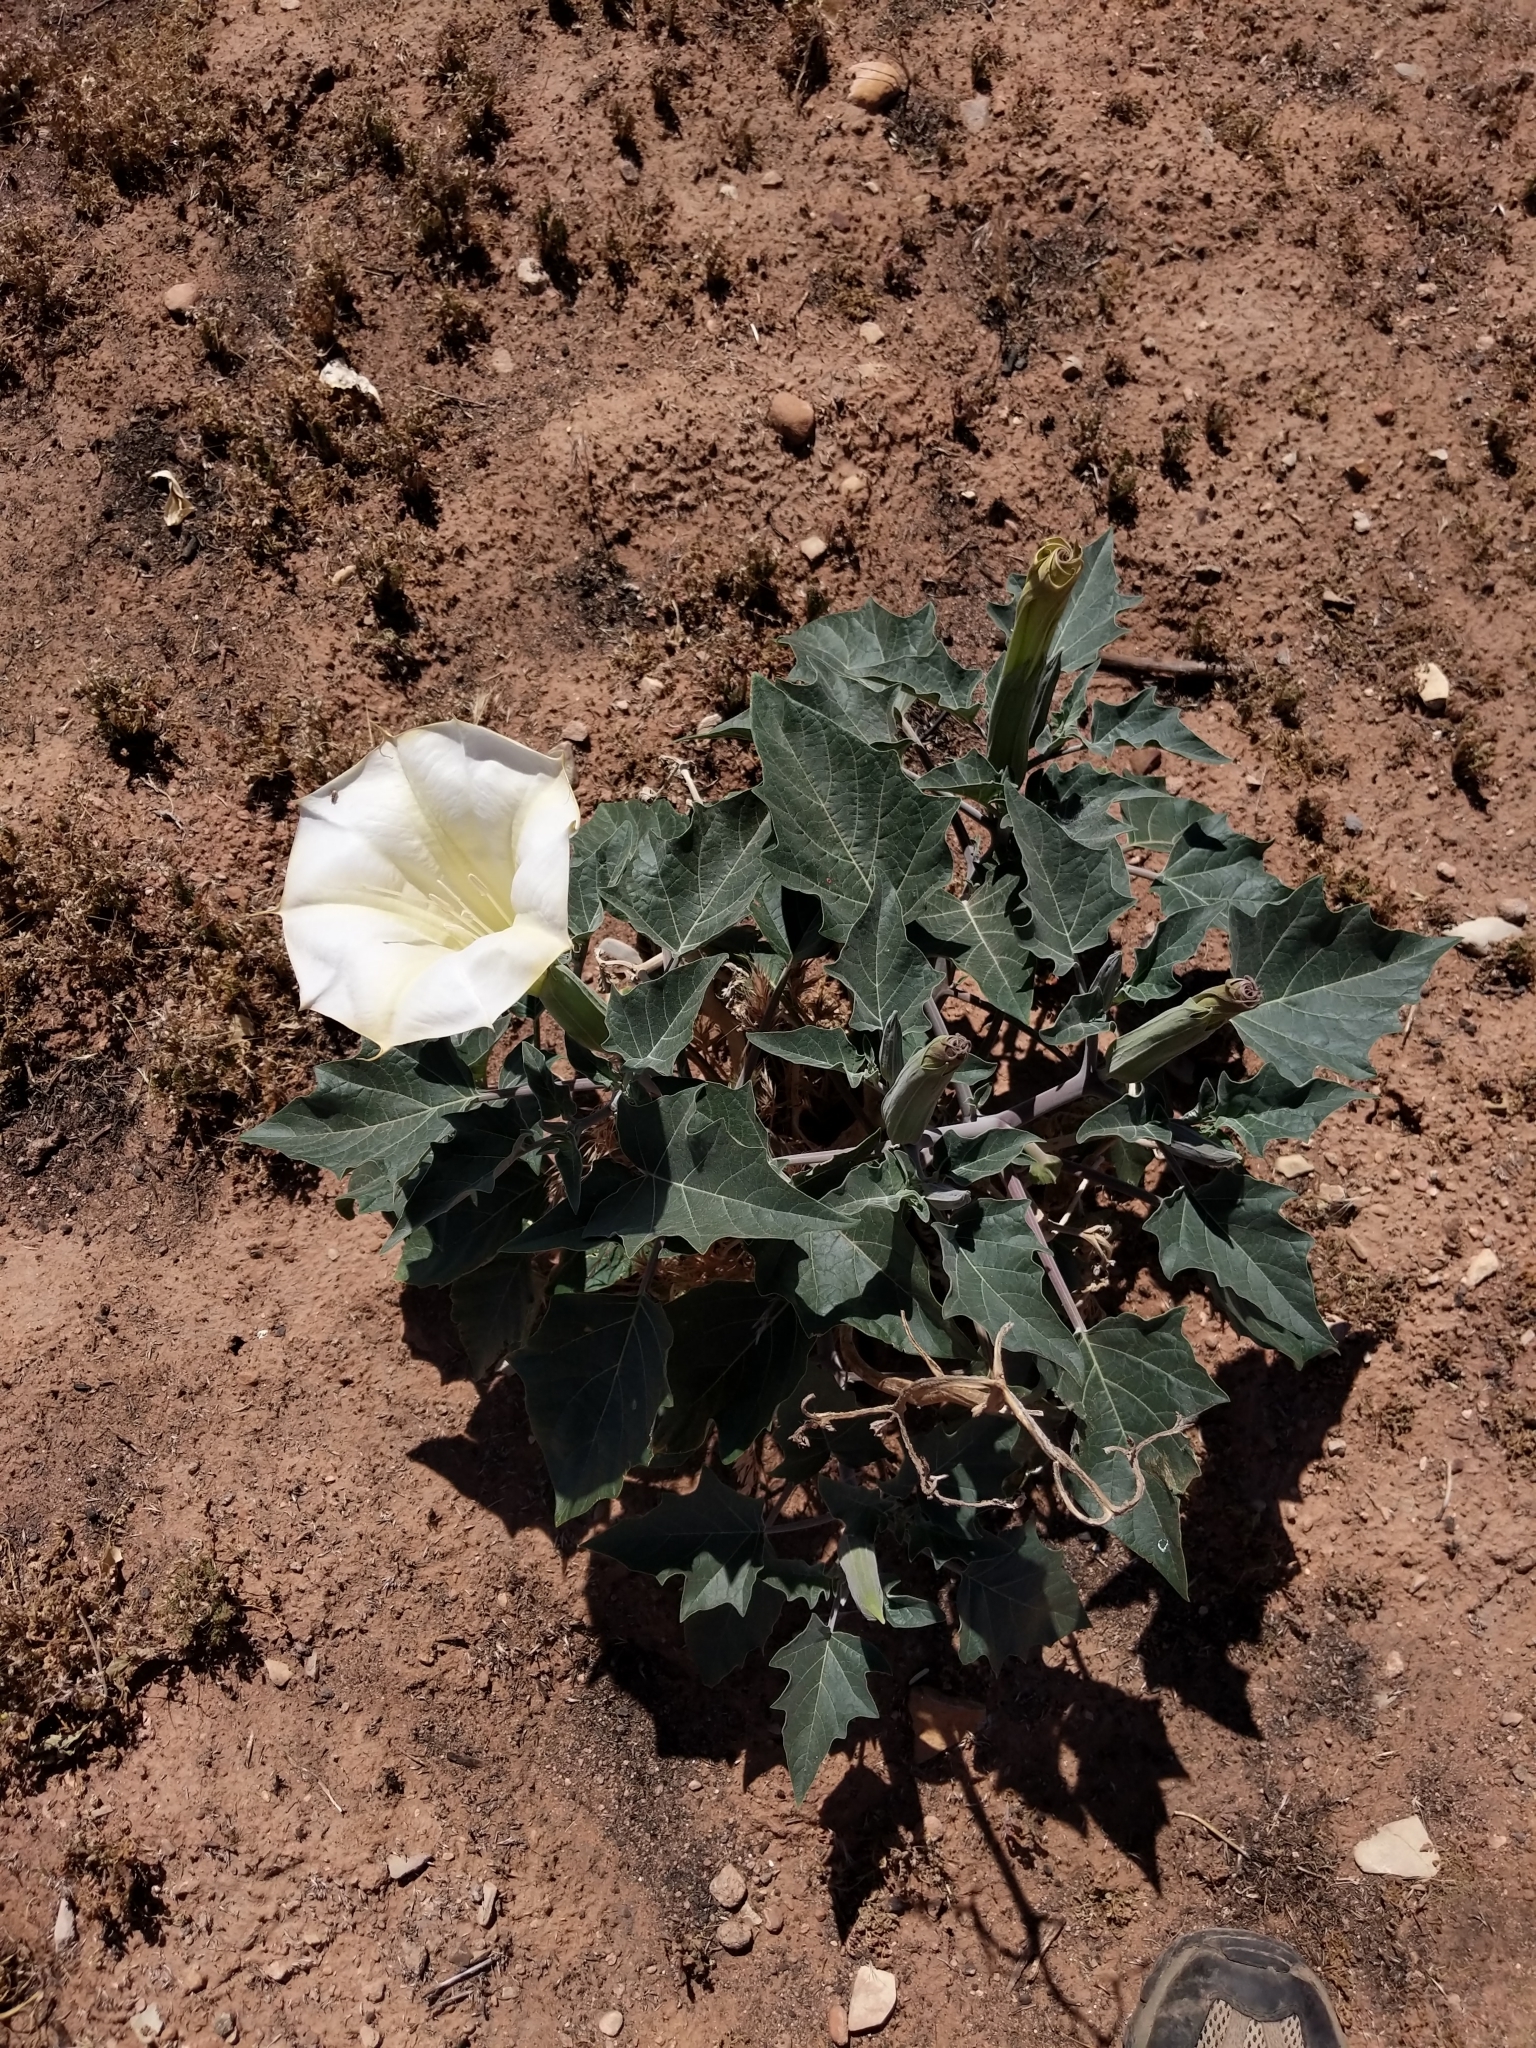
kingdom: Plantae
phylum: Tracheophyta
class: Magnoliopsida
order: Solanales
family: Solanaceae
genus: Datura
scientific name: Datura wrightii
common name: Sacred thorn-apple
